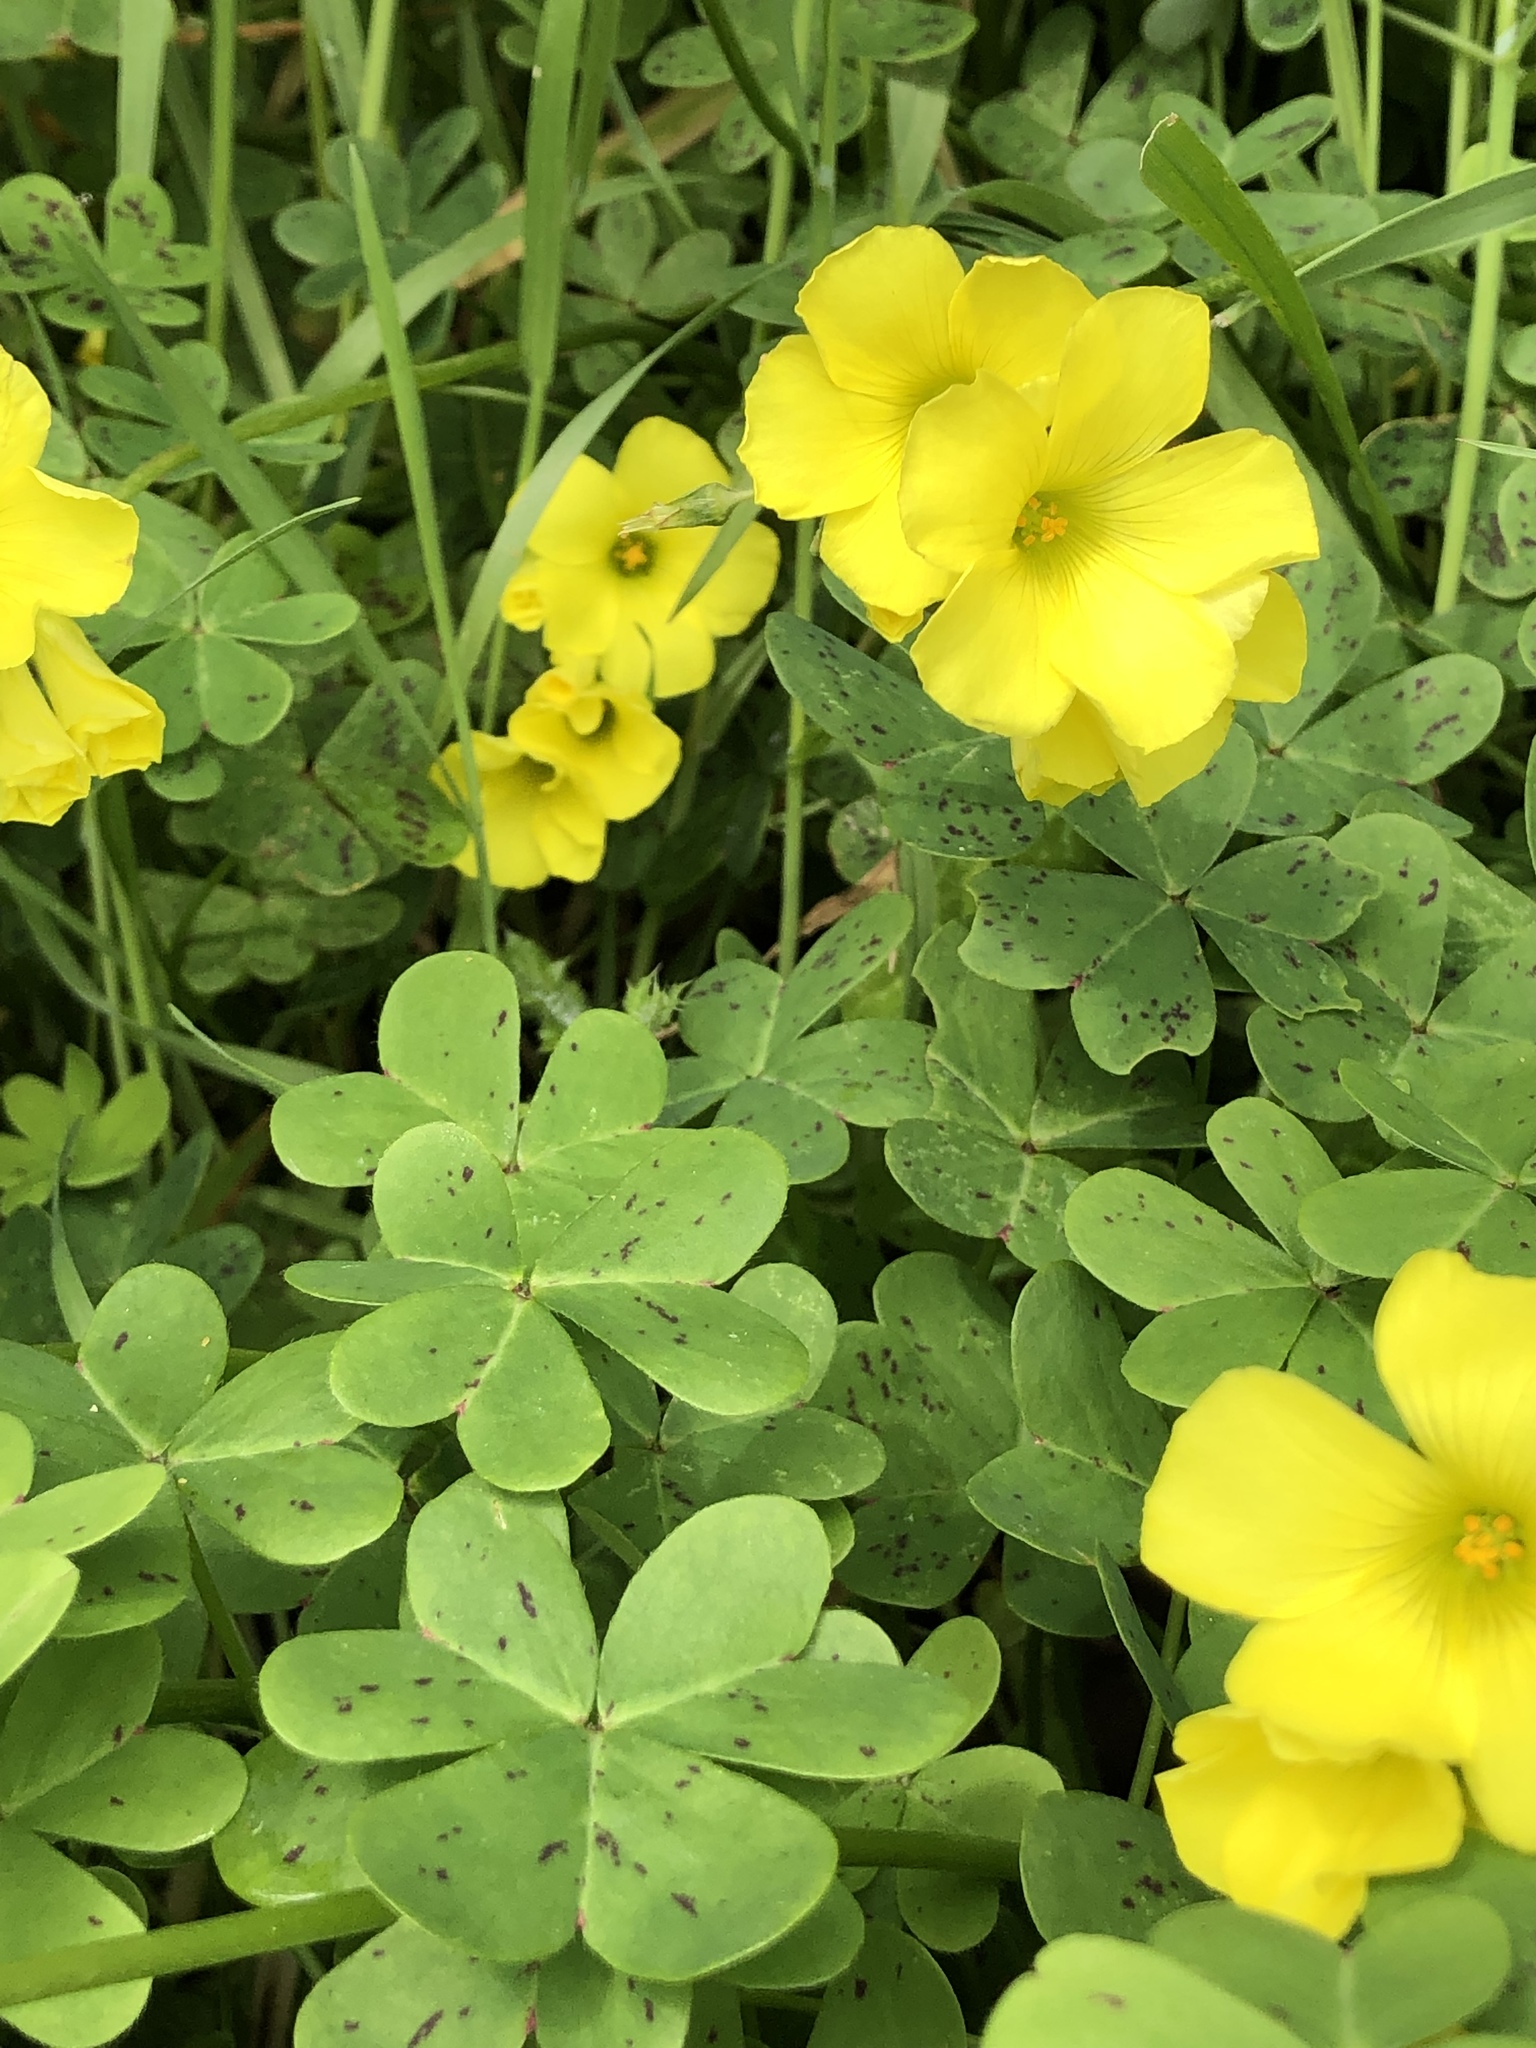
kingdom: Plantae
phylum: Tracheophyta
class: Magnoliopsida
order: Oxalidales
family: Oxalidaceae
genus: Oxalis
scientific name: Oxalis pes-caprae
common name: Bermuda-buttercup
